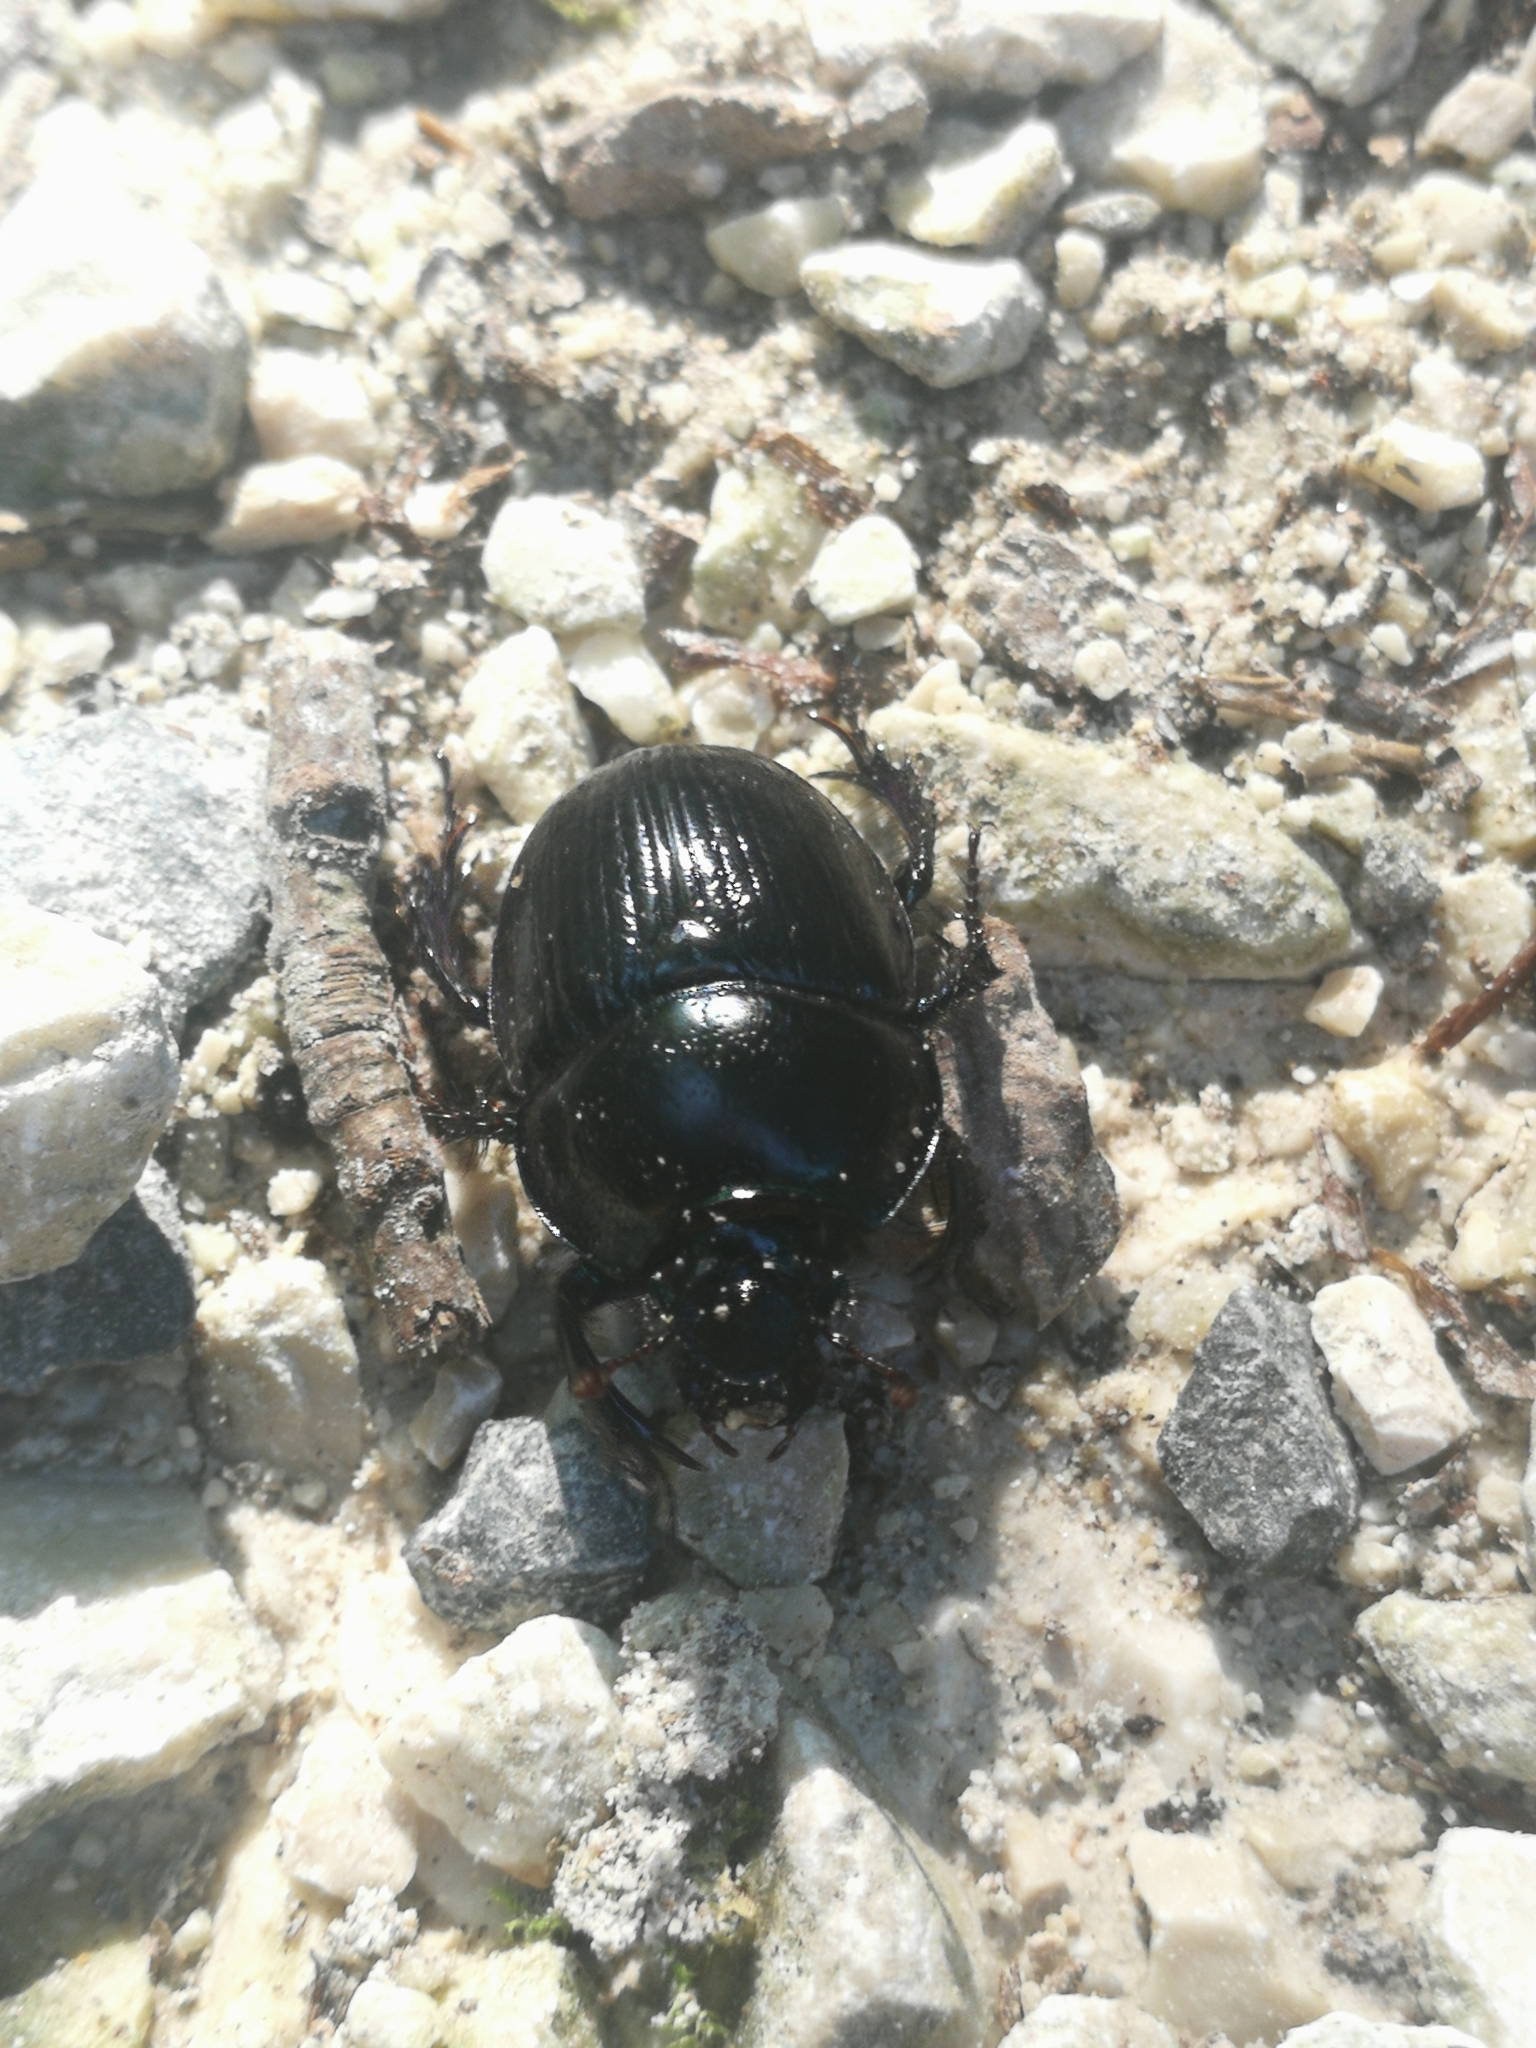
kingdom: Animalia
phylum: Arthropoda
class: Insecta
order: Coleoptera
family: Geotrupidae
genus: Anoplotrupes
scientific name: Anoplotrupes stercorosus
